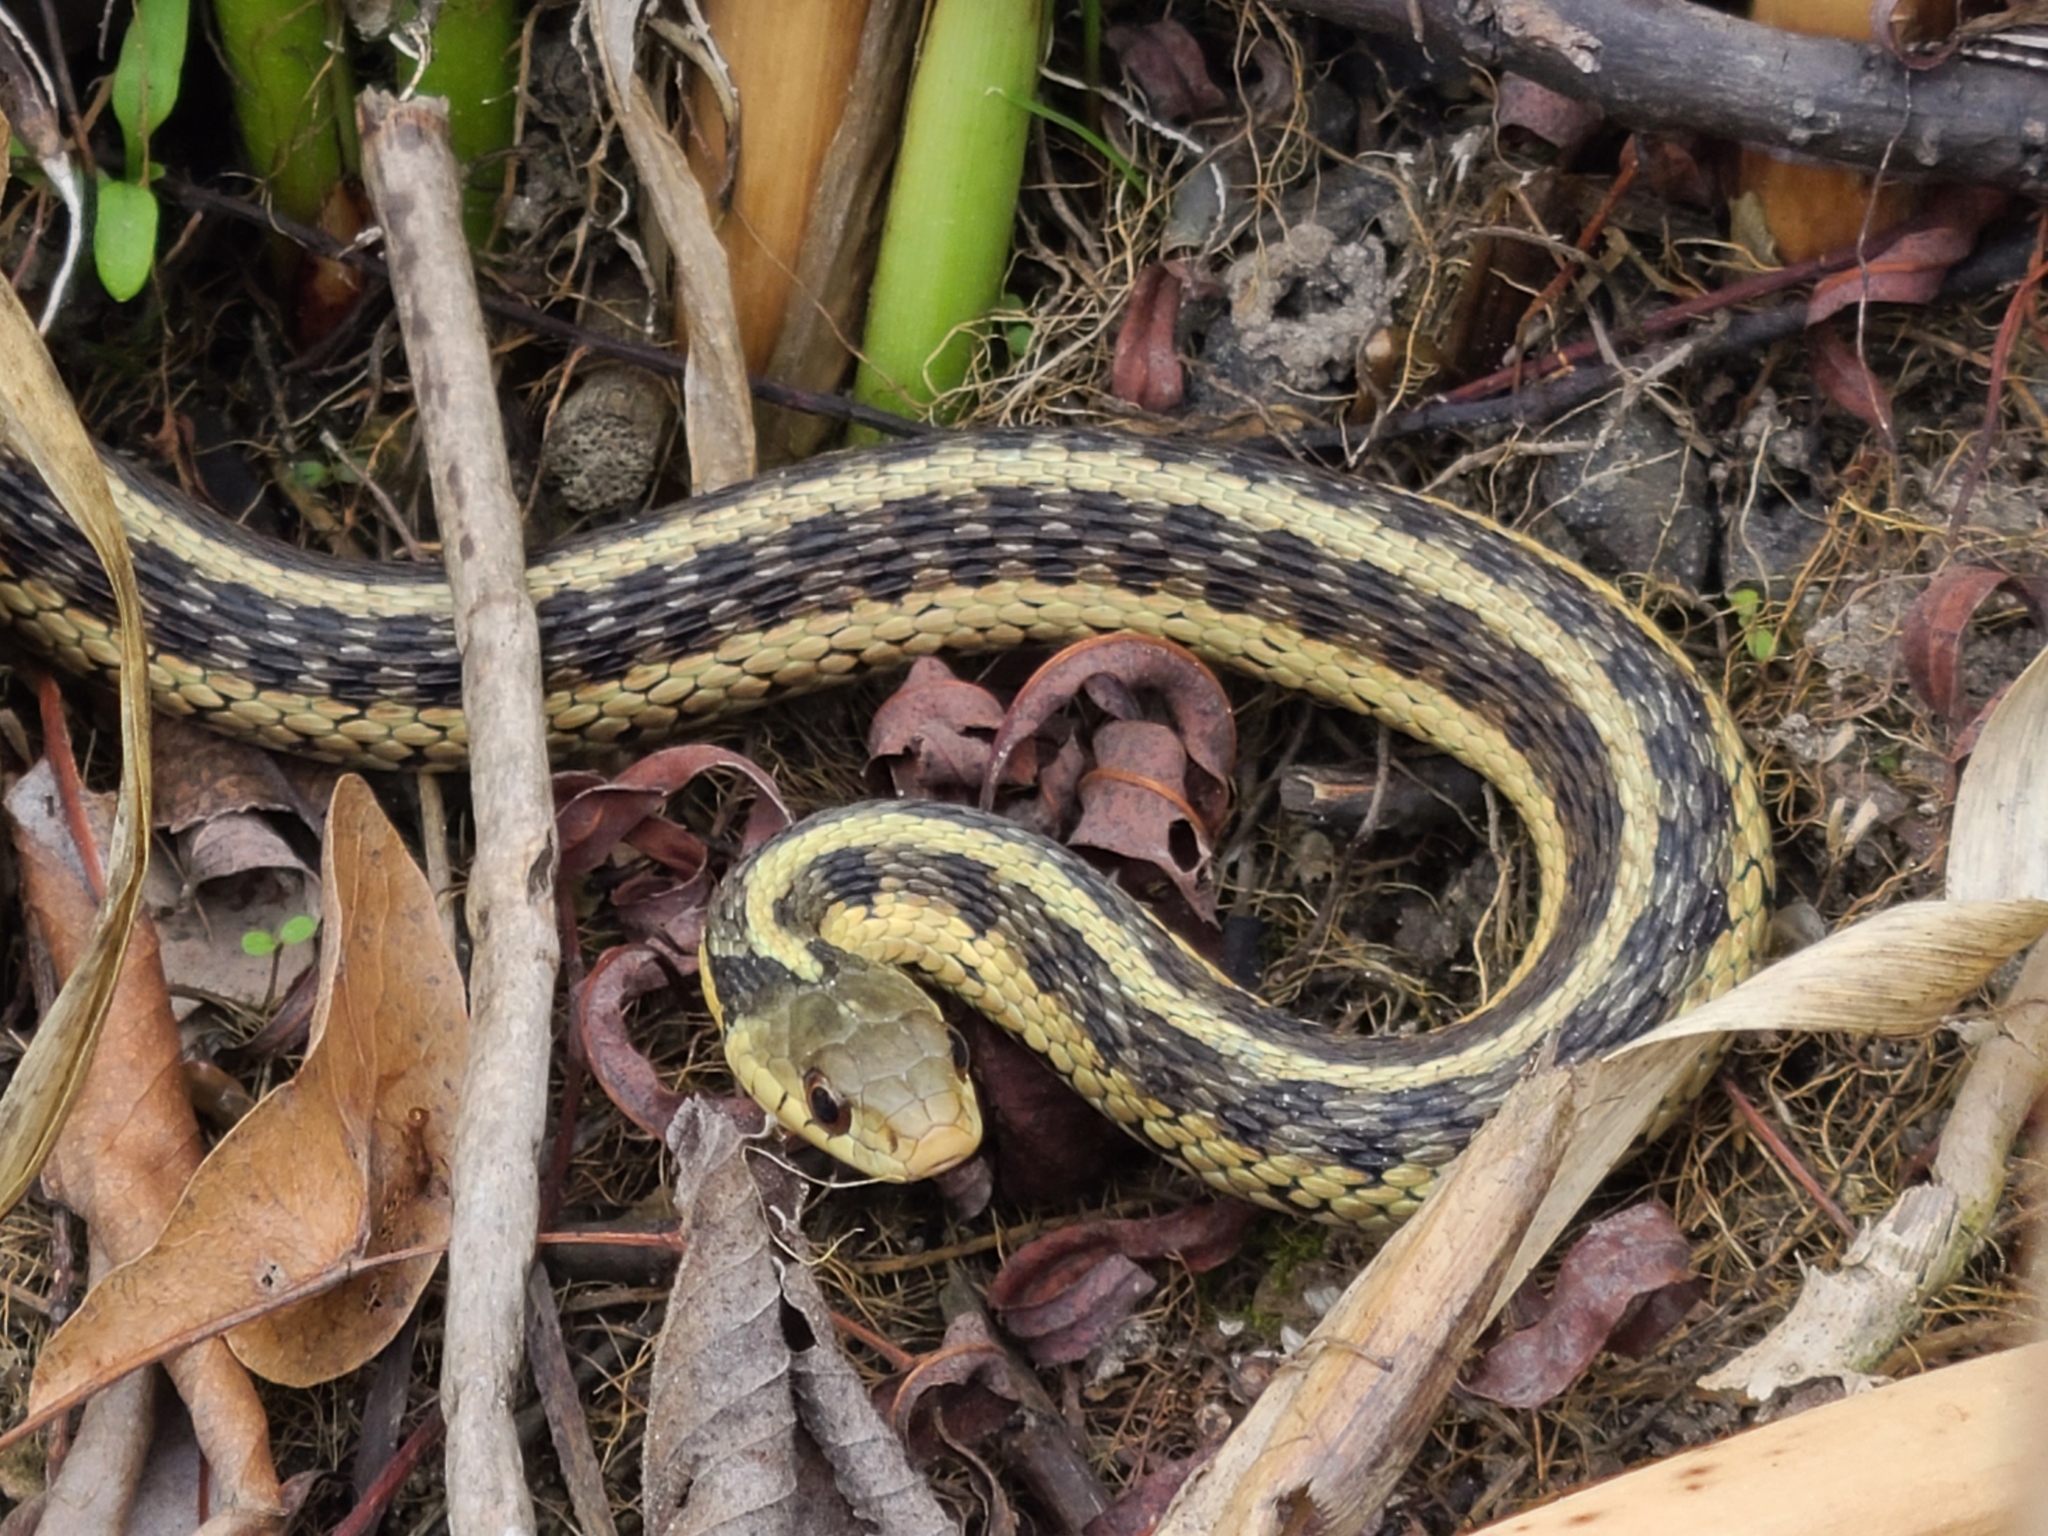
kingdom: Animalia
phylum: Chordata
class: Squamata
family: Colubridae
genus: Thamnophis
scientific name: Thamnophis sirtalis
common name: Common garter snake
